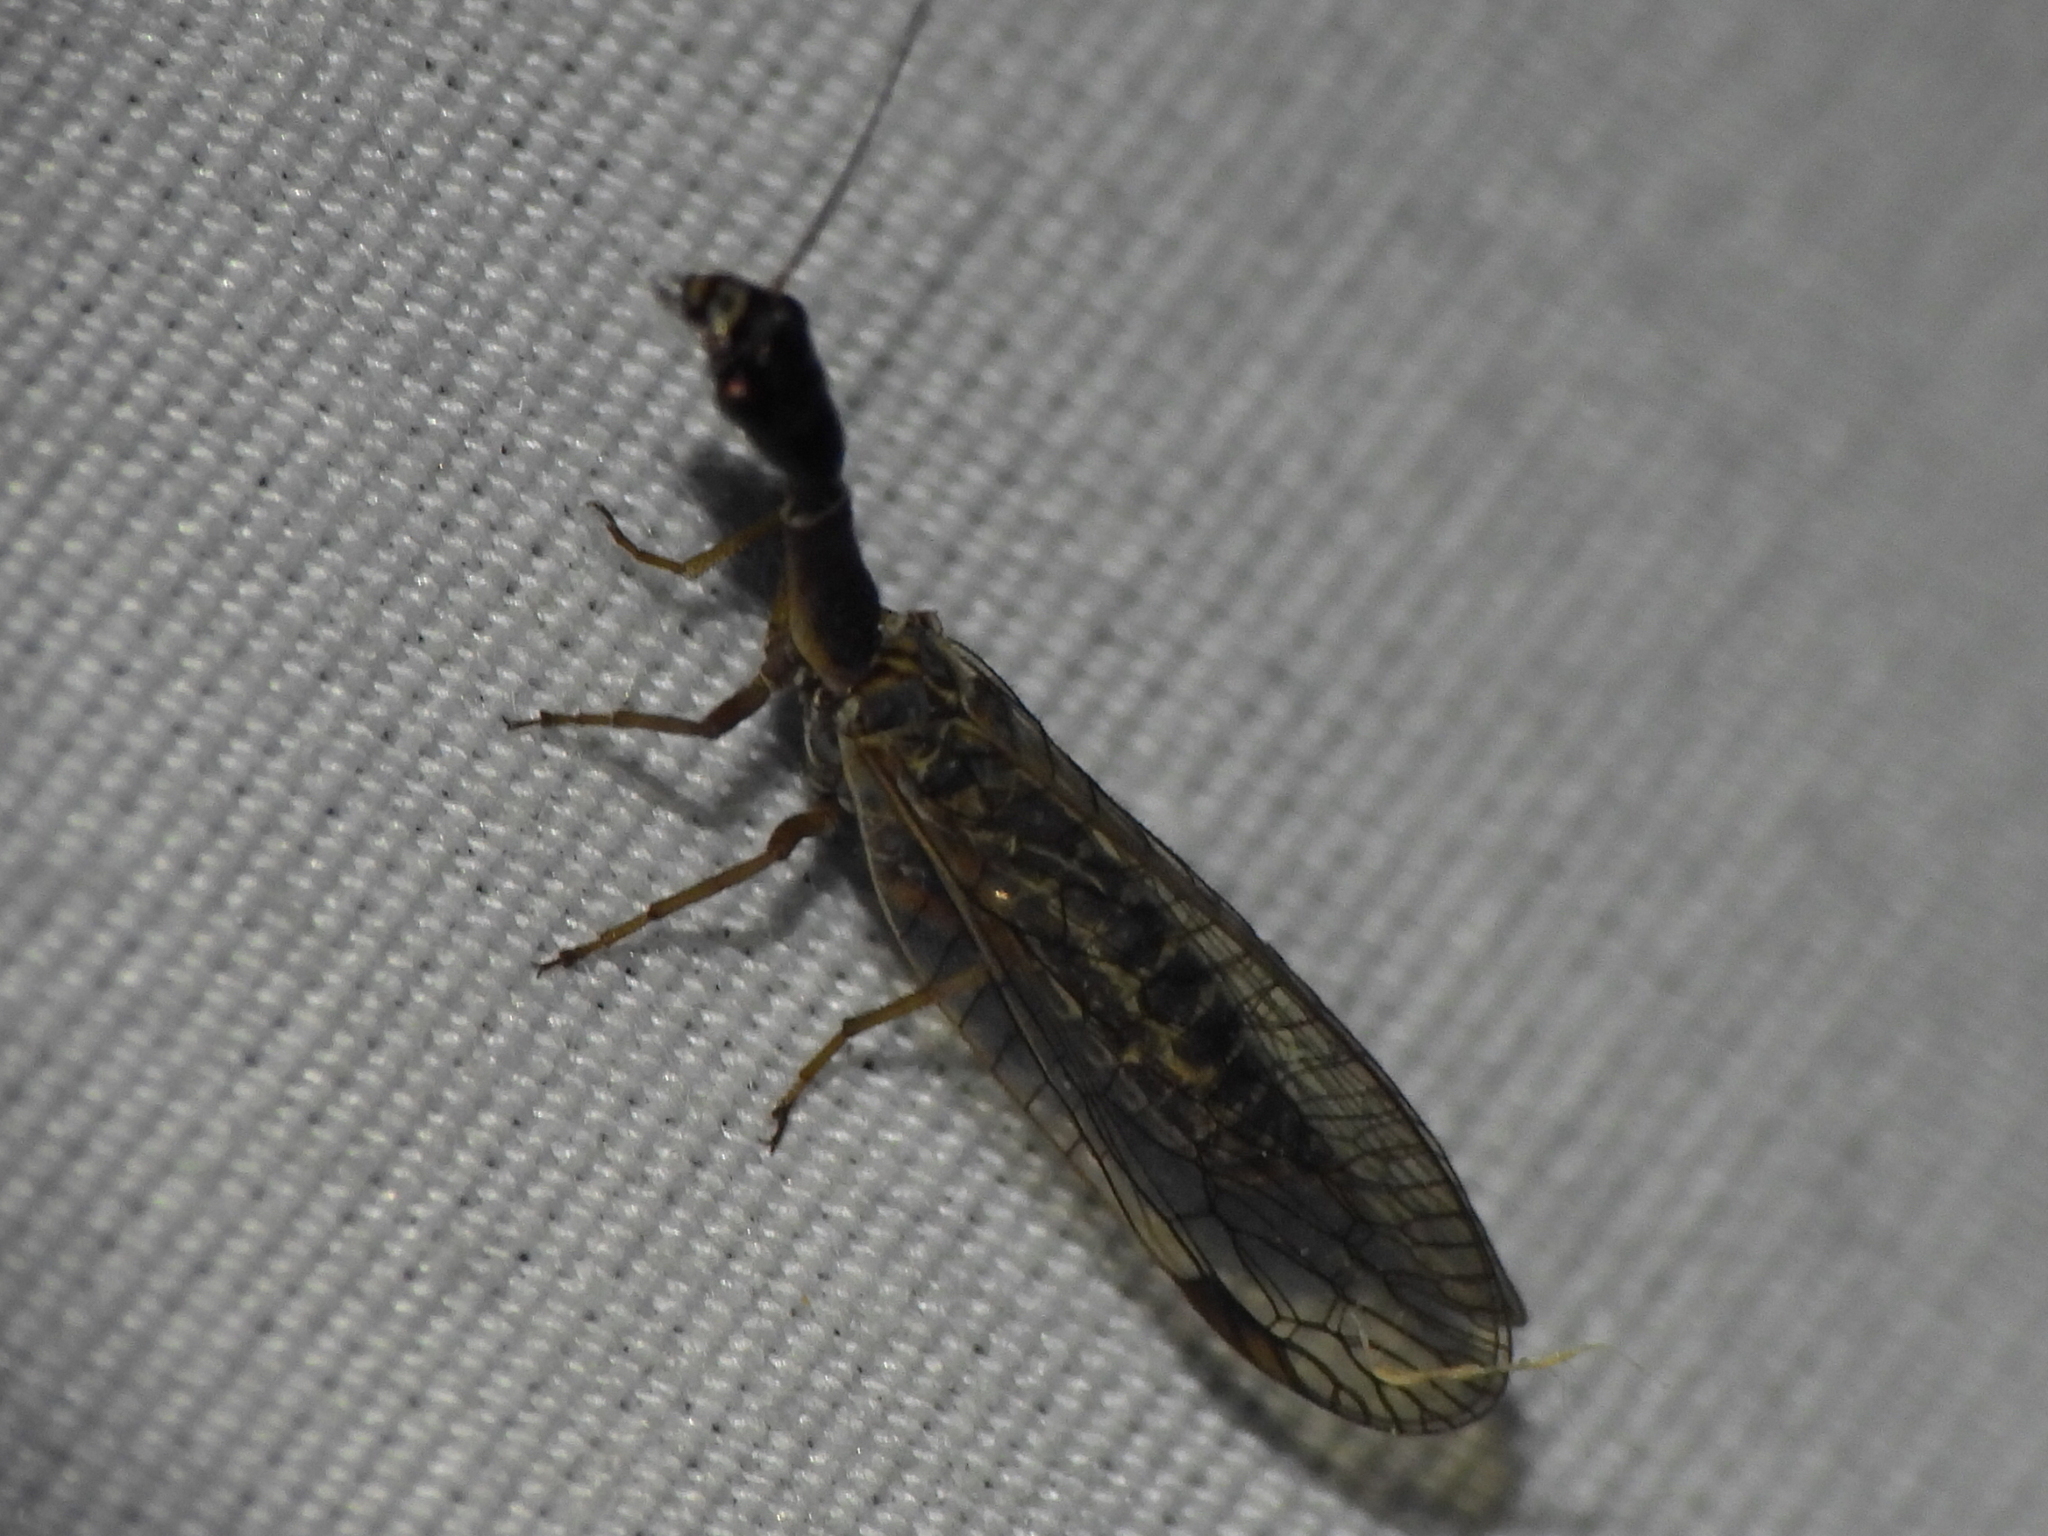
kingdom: Animalia
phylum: Arthropoda
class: Insecta
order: Raphidioptera
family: Raphidiidae
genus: Agulla
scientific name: Agulla bicolor
